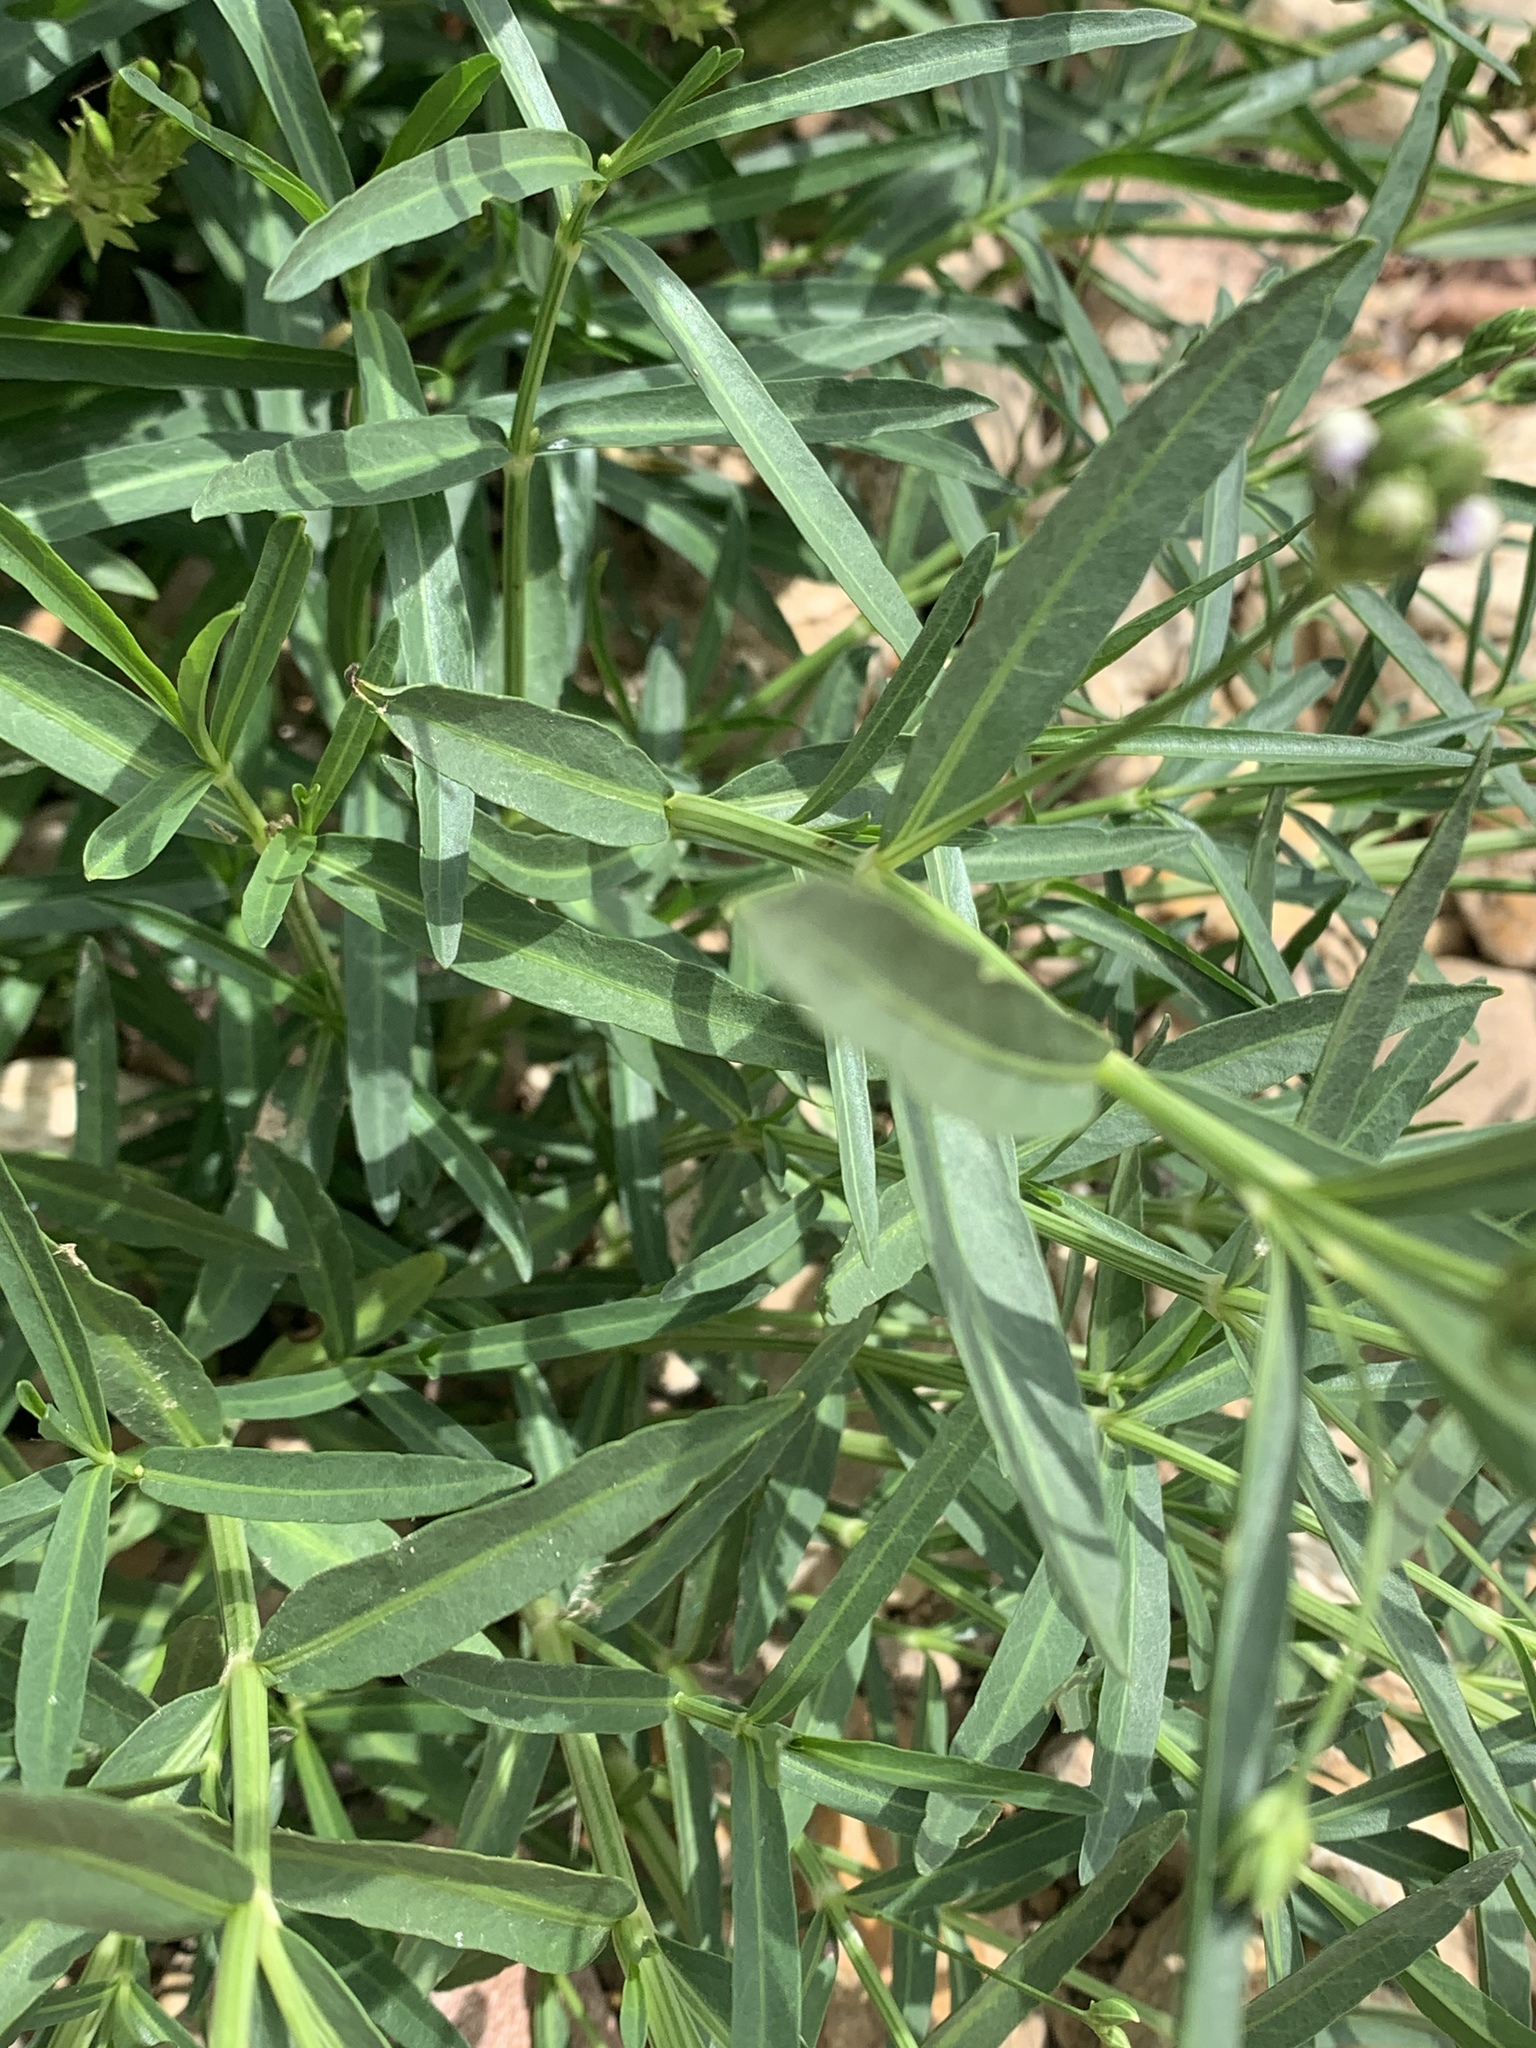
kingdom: Plantae
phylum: Tracheophyta
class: Magnoliopsida
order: Lamiales
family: Acanthaceae
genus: Dianthera
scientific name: Dianthera americana
